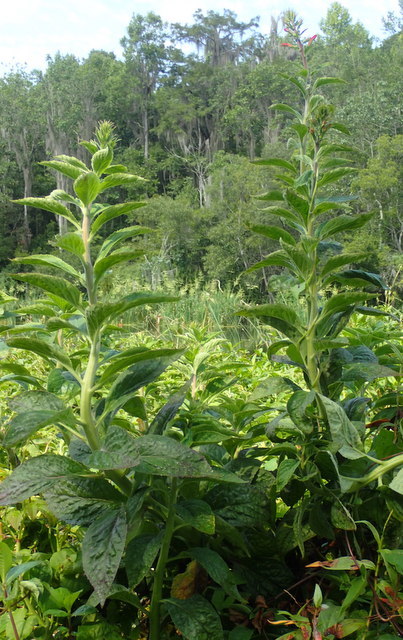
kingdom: Plantae
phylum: Tracheophyta
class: Magnoliopsida
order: Asterales
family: Campanulaceae
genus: Lobelia
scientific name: Lobelia cardinalis
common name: Cardinal flower
